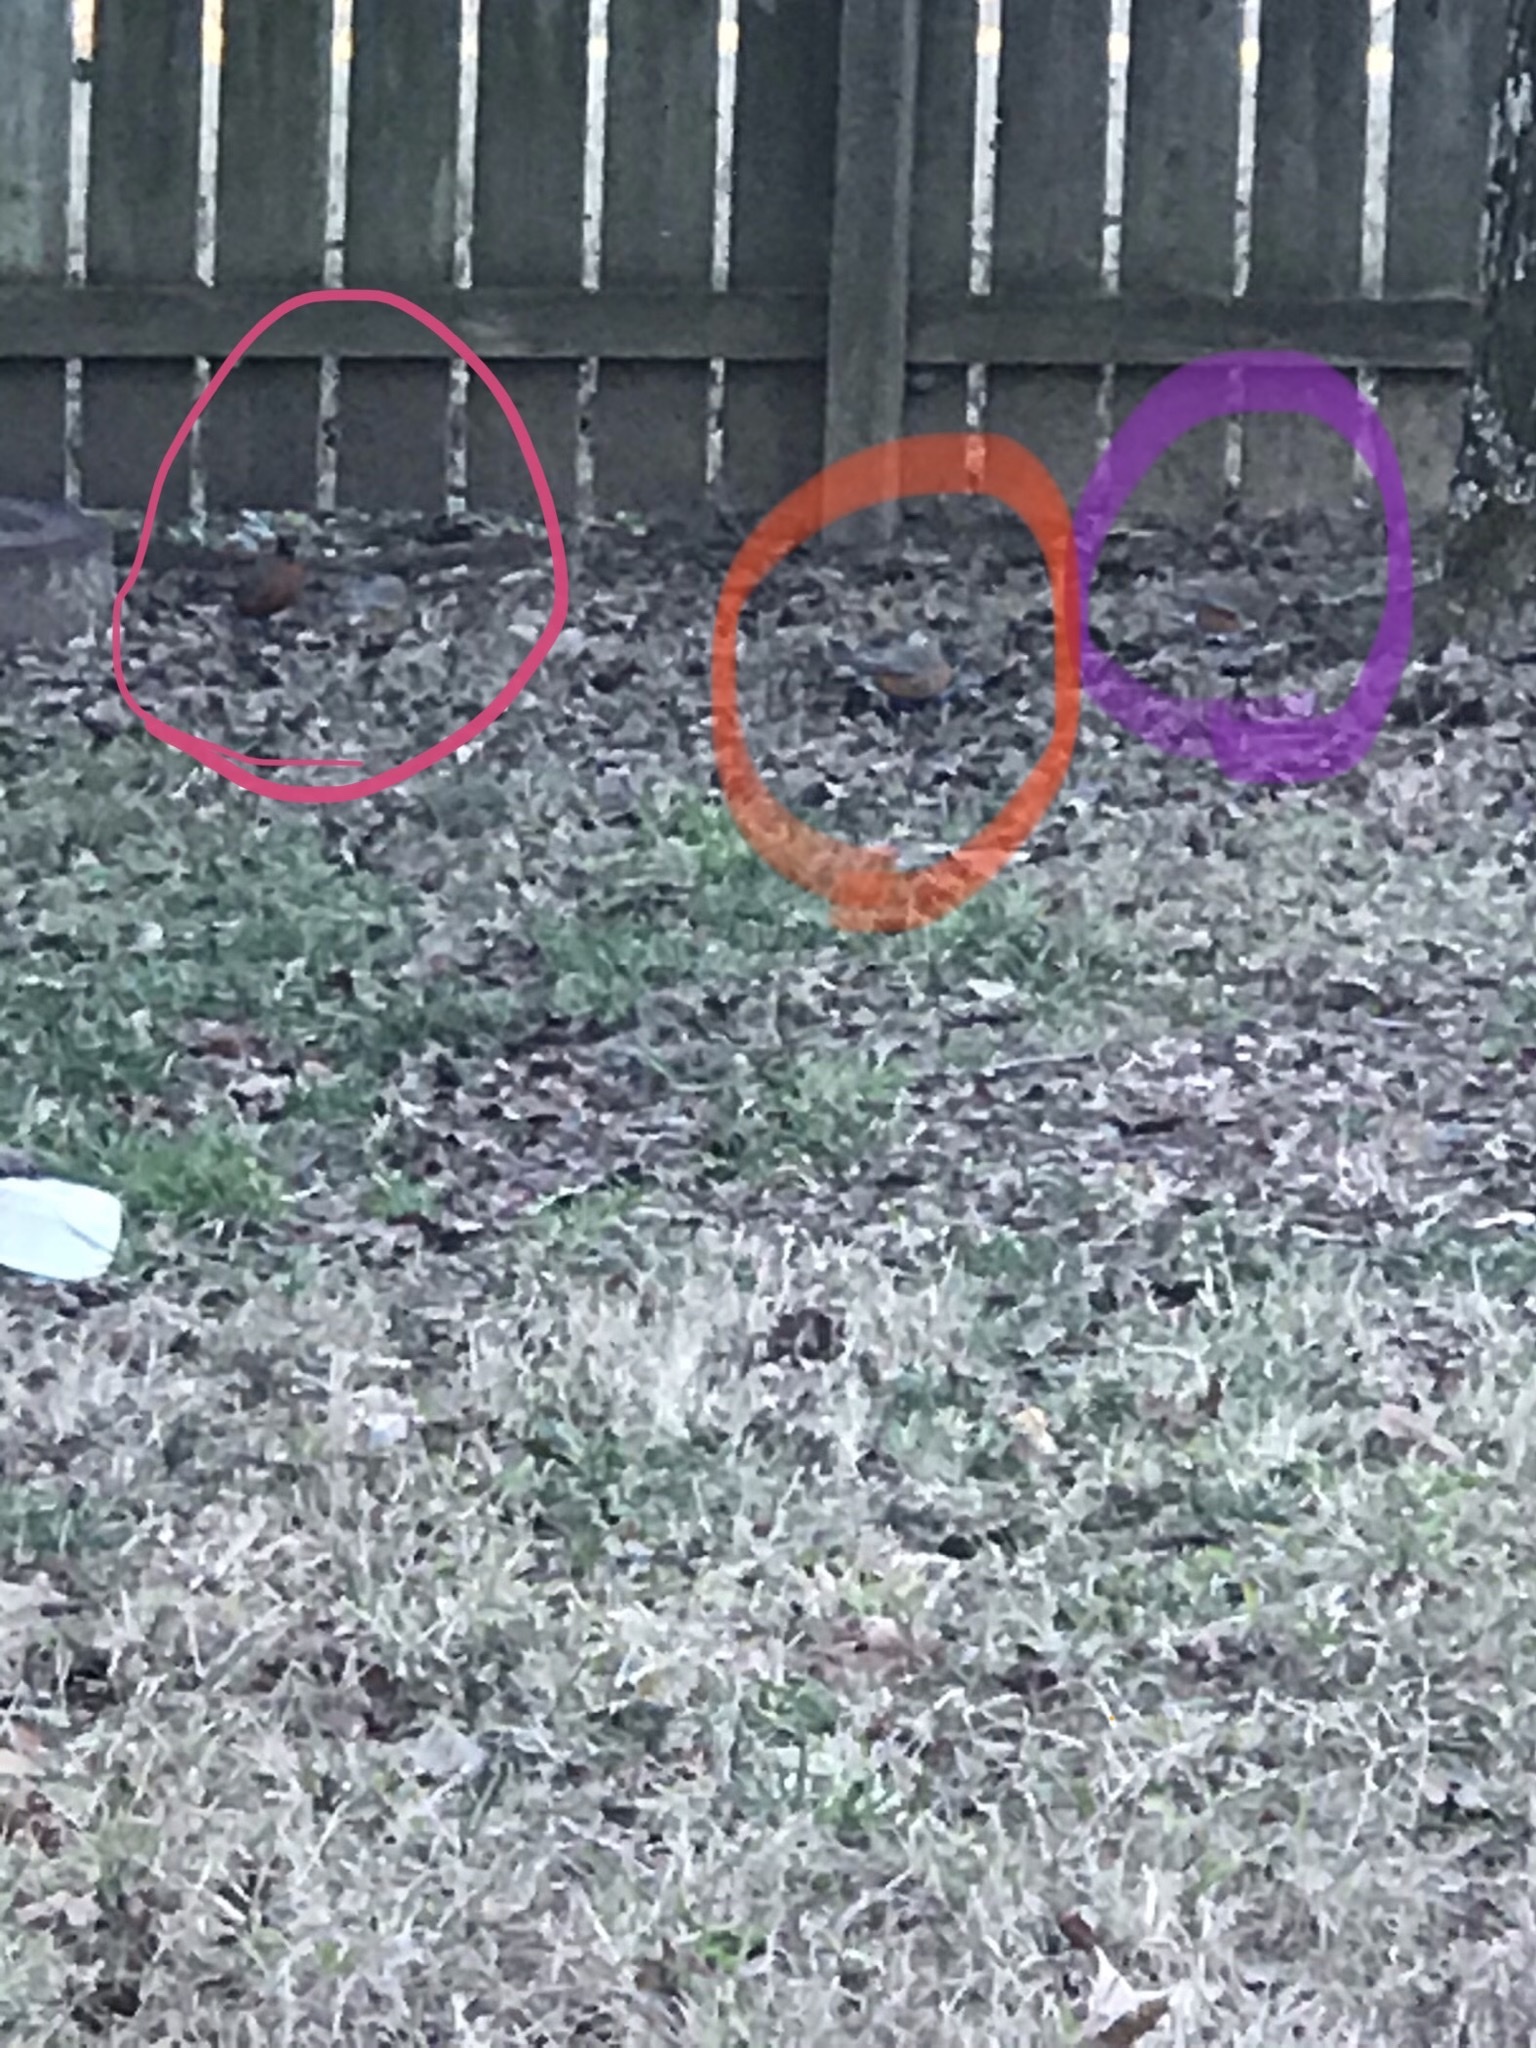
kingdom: Animalia
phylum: Chordata
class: Aves
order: Passeriformes
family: Turdidae
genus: Turdus
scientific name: Turdus migratorius
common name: American robin
